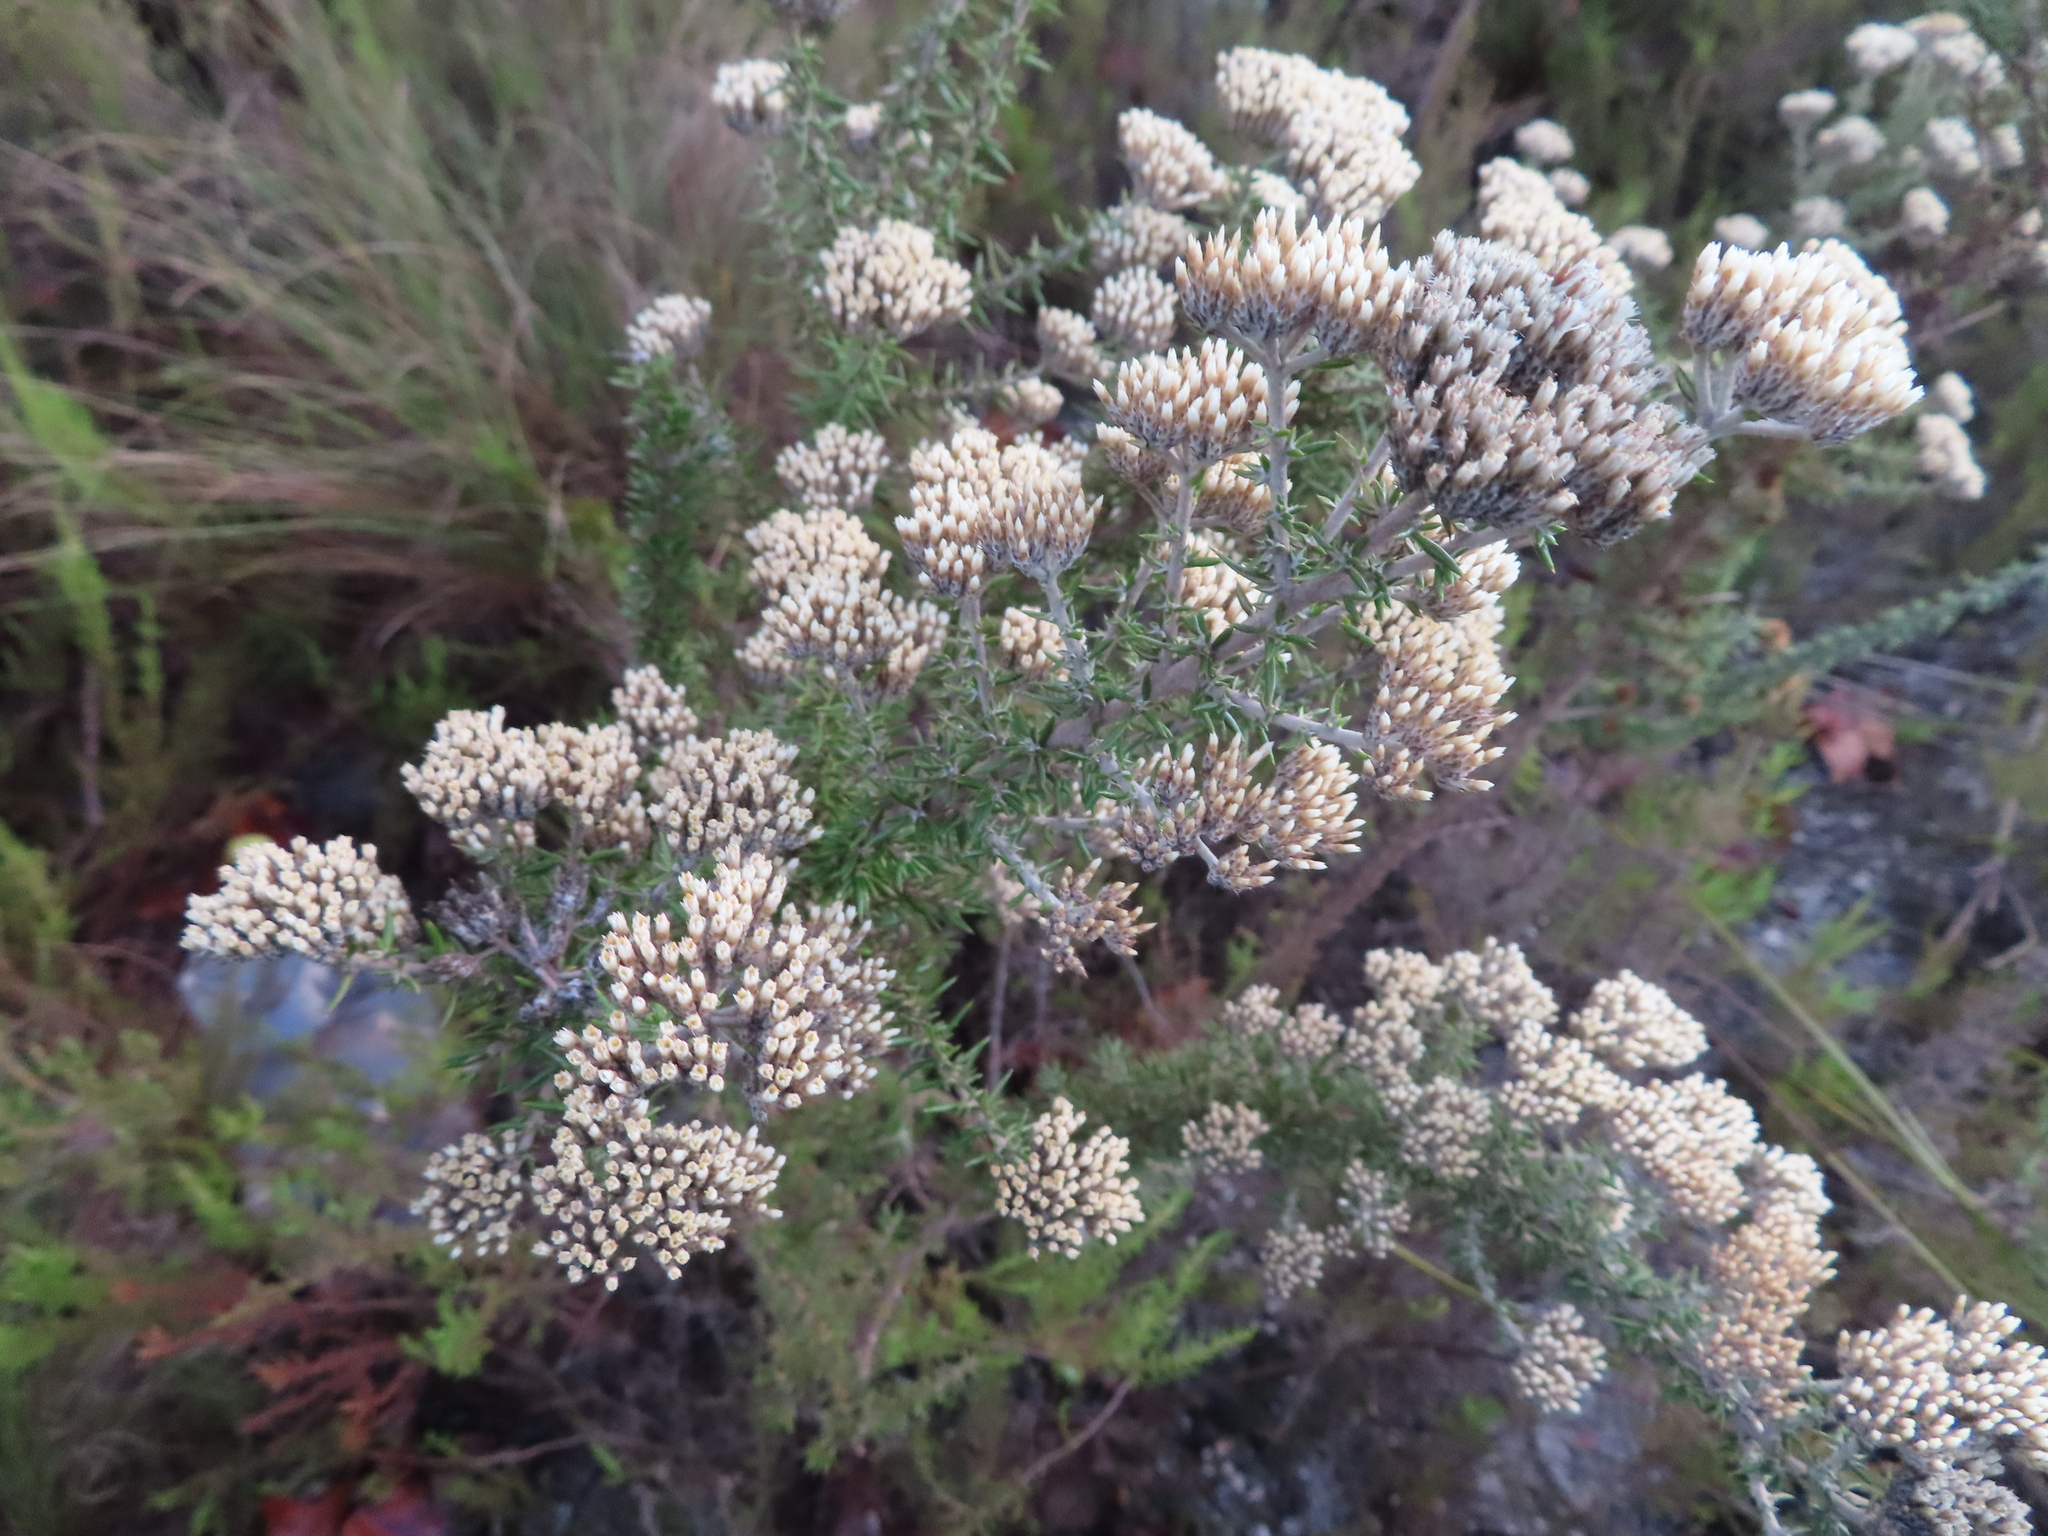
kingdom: Plantae
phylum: Tracheophyta
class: Magnoliopsida
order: Asterales
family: Asteraceae
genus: Metalasia
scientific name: Metalasia densa
